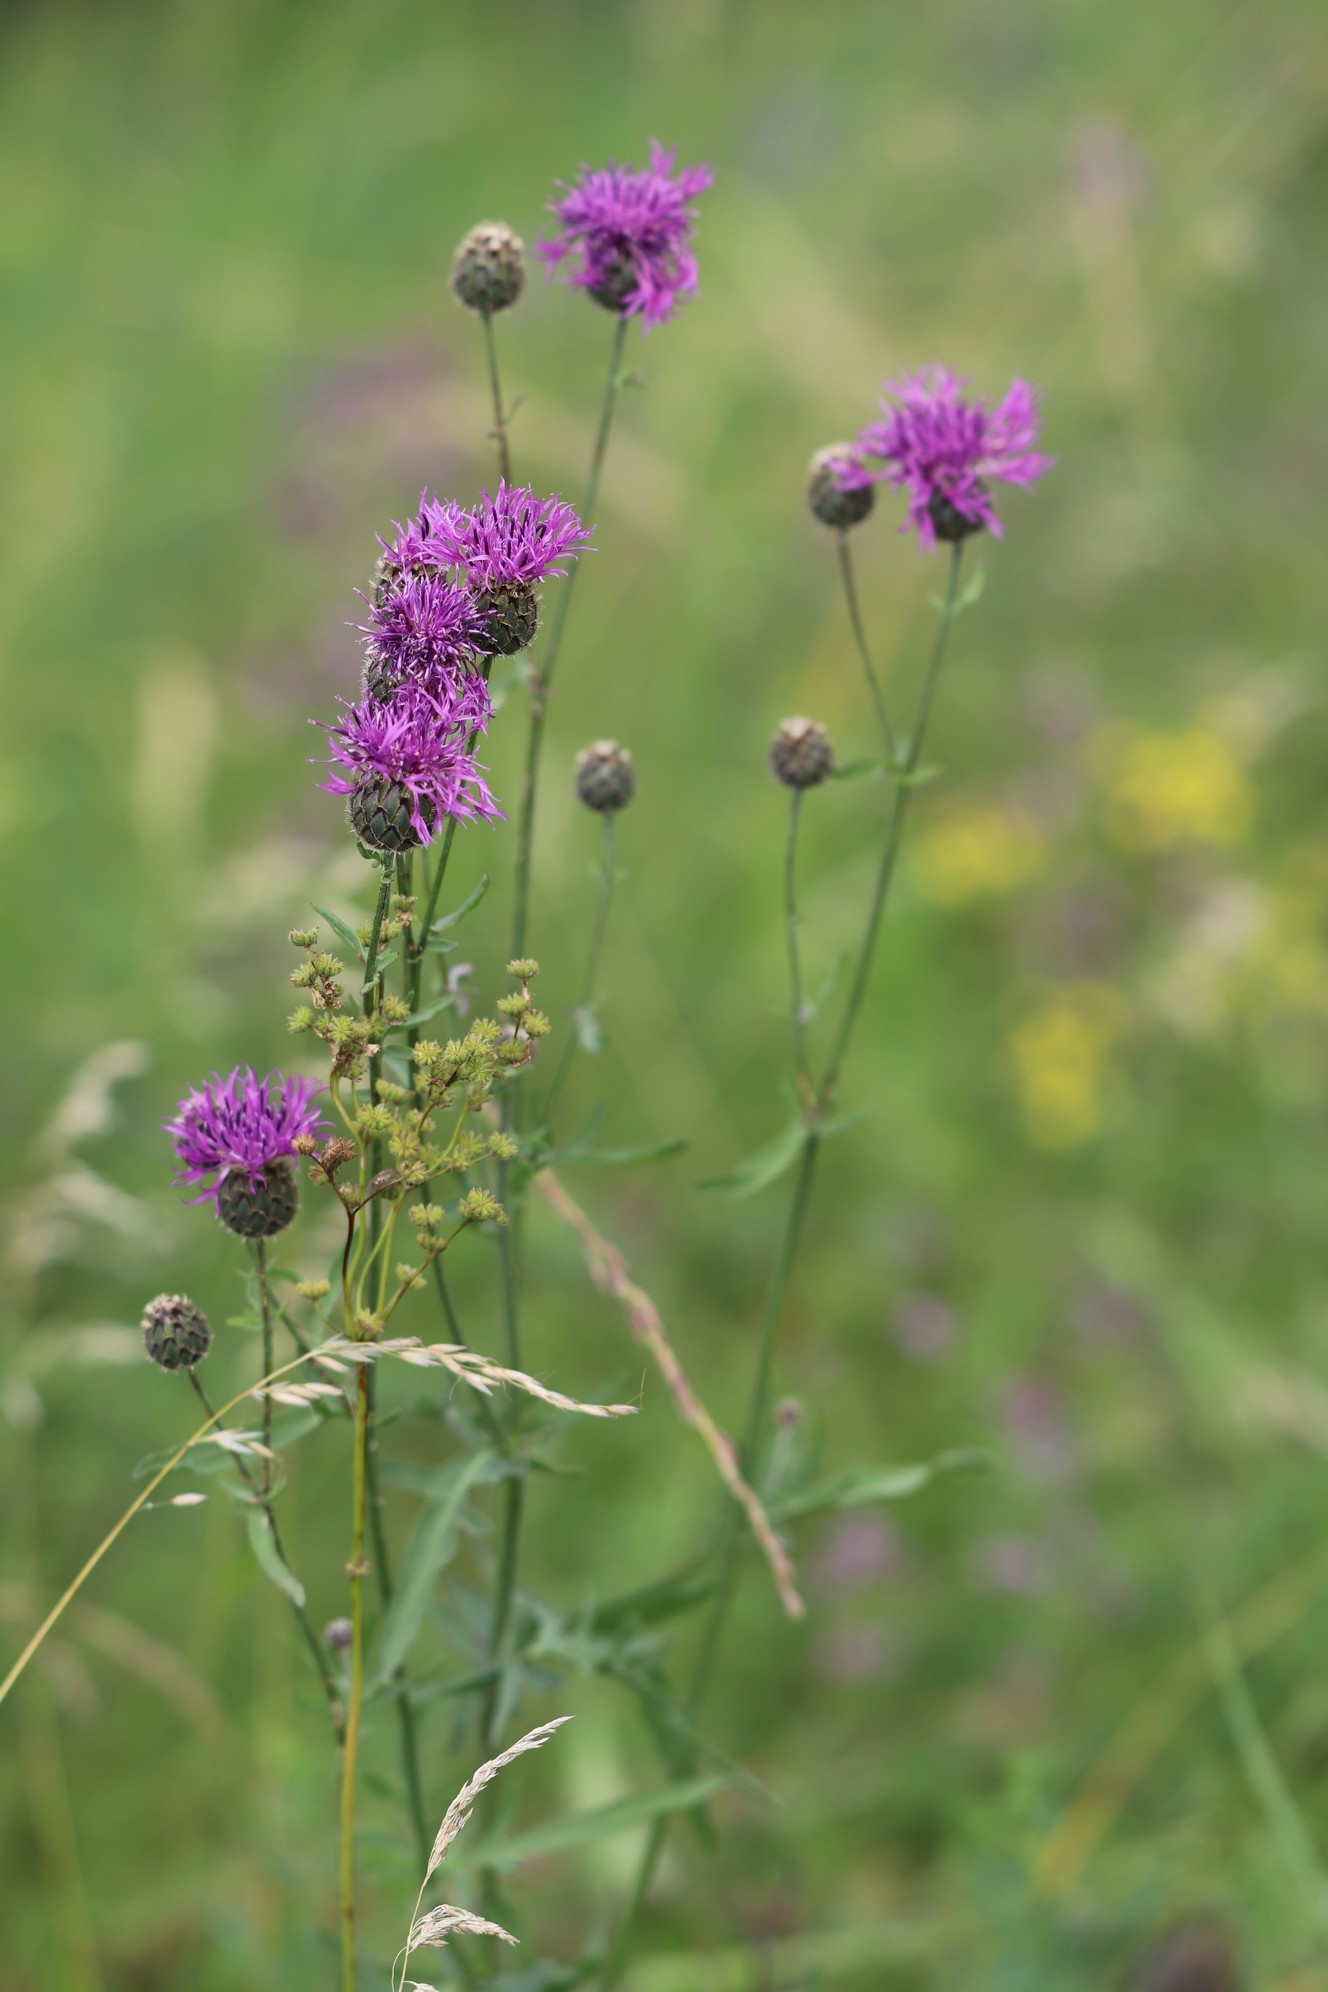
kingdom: Plantae
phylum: Tracheophyta
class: Magnoliopsida
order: Asterales
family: Asteraceae
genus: Centaurea
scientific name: Centaurea scabiosa
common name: Greater knapweed
